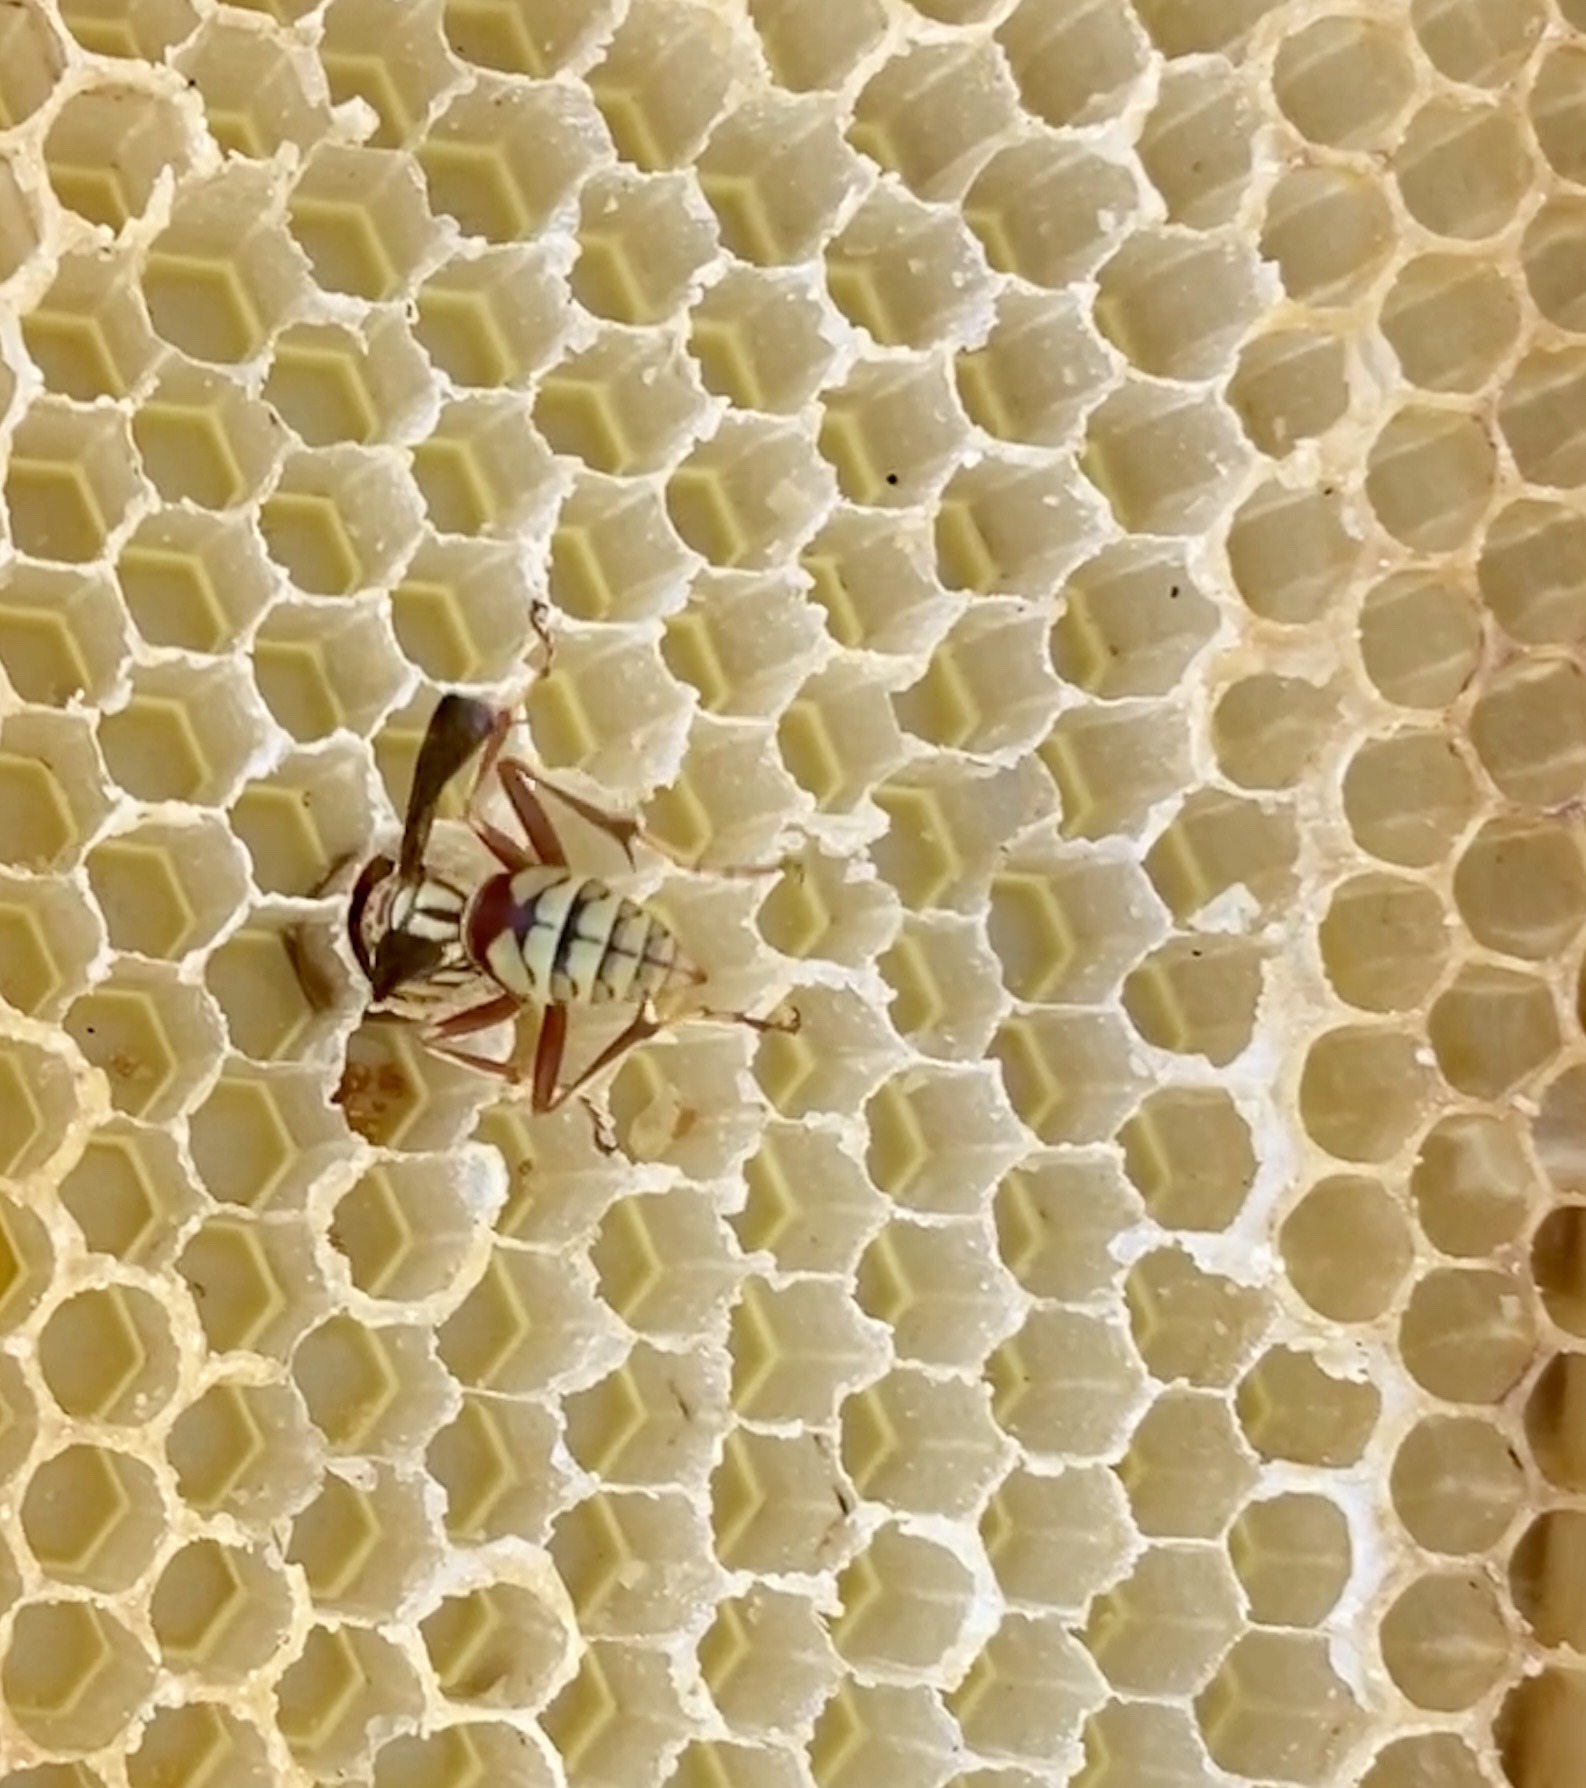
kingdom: Animalia
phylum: Arthropoda
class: Insecta
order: Hymenoptera
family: Eumenidae
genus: Polistes
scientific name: Polistes apachus
